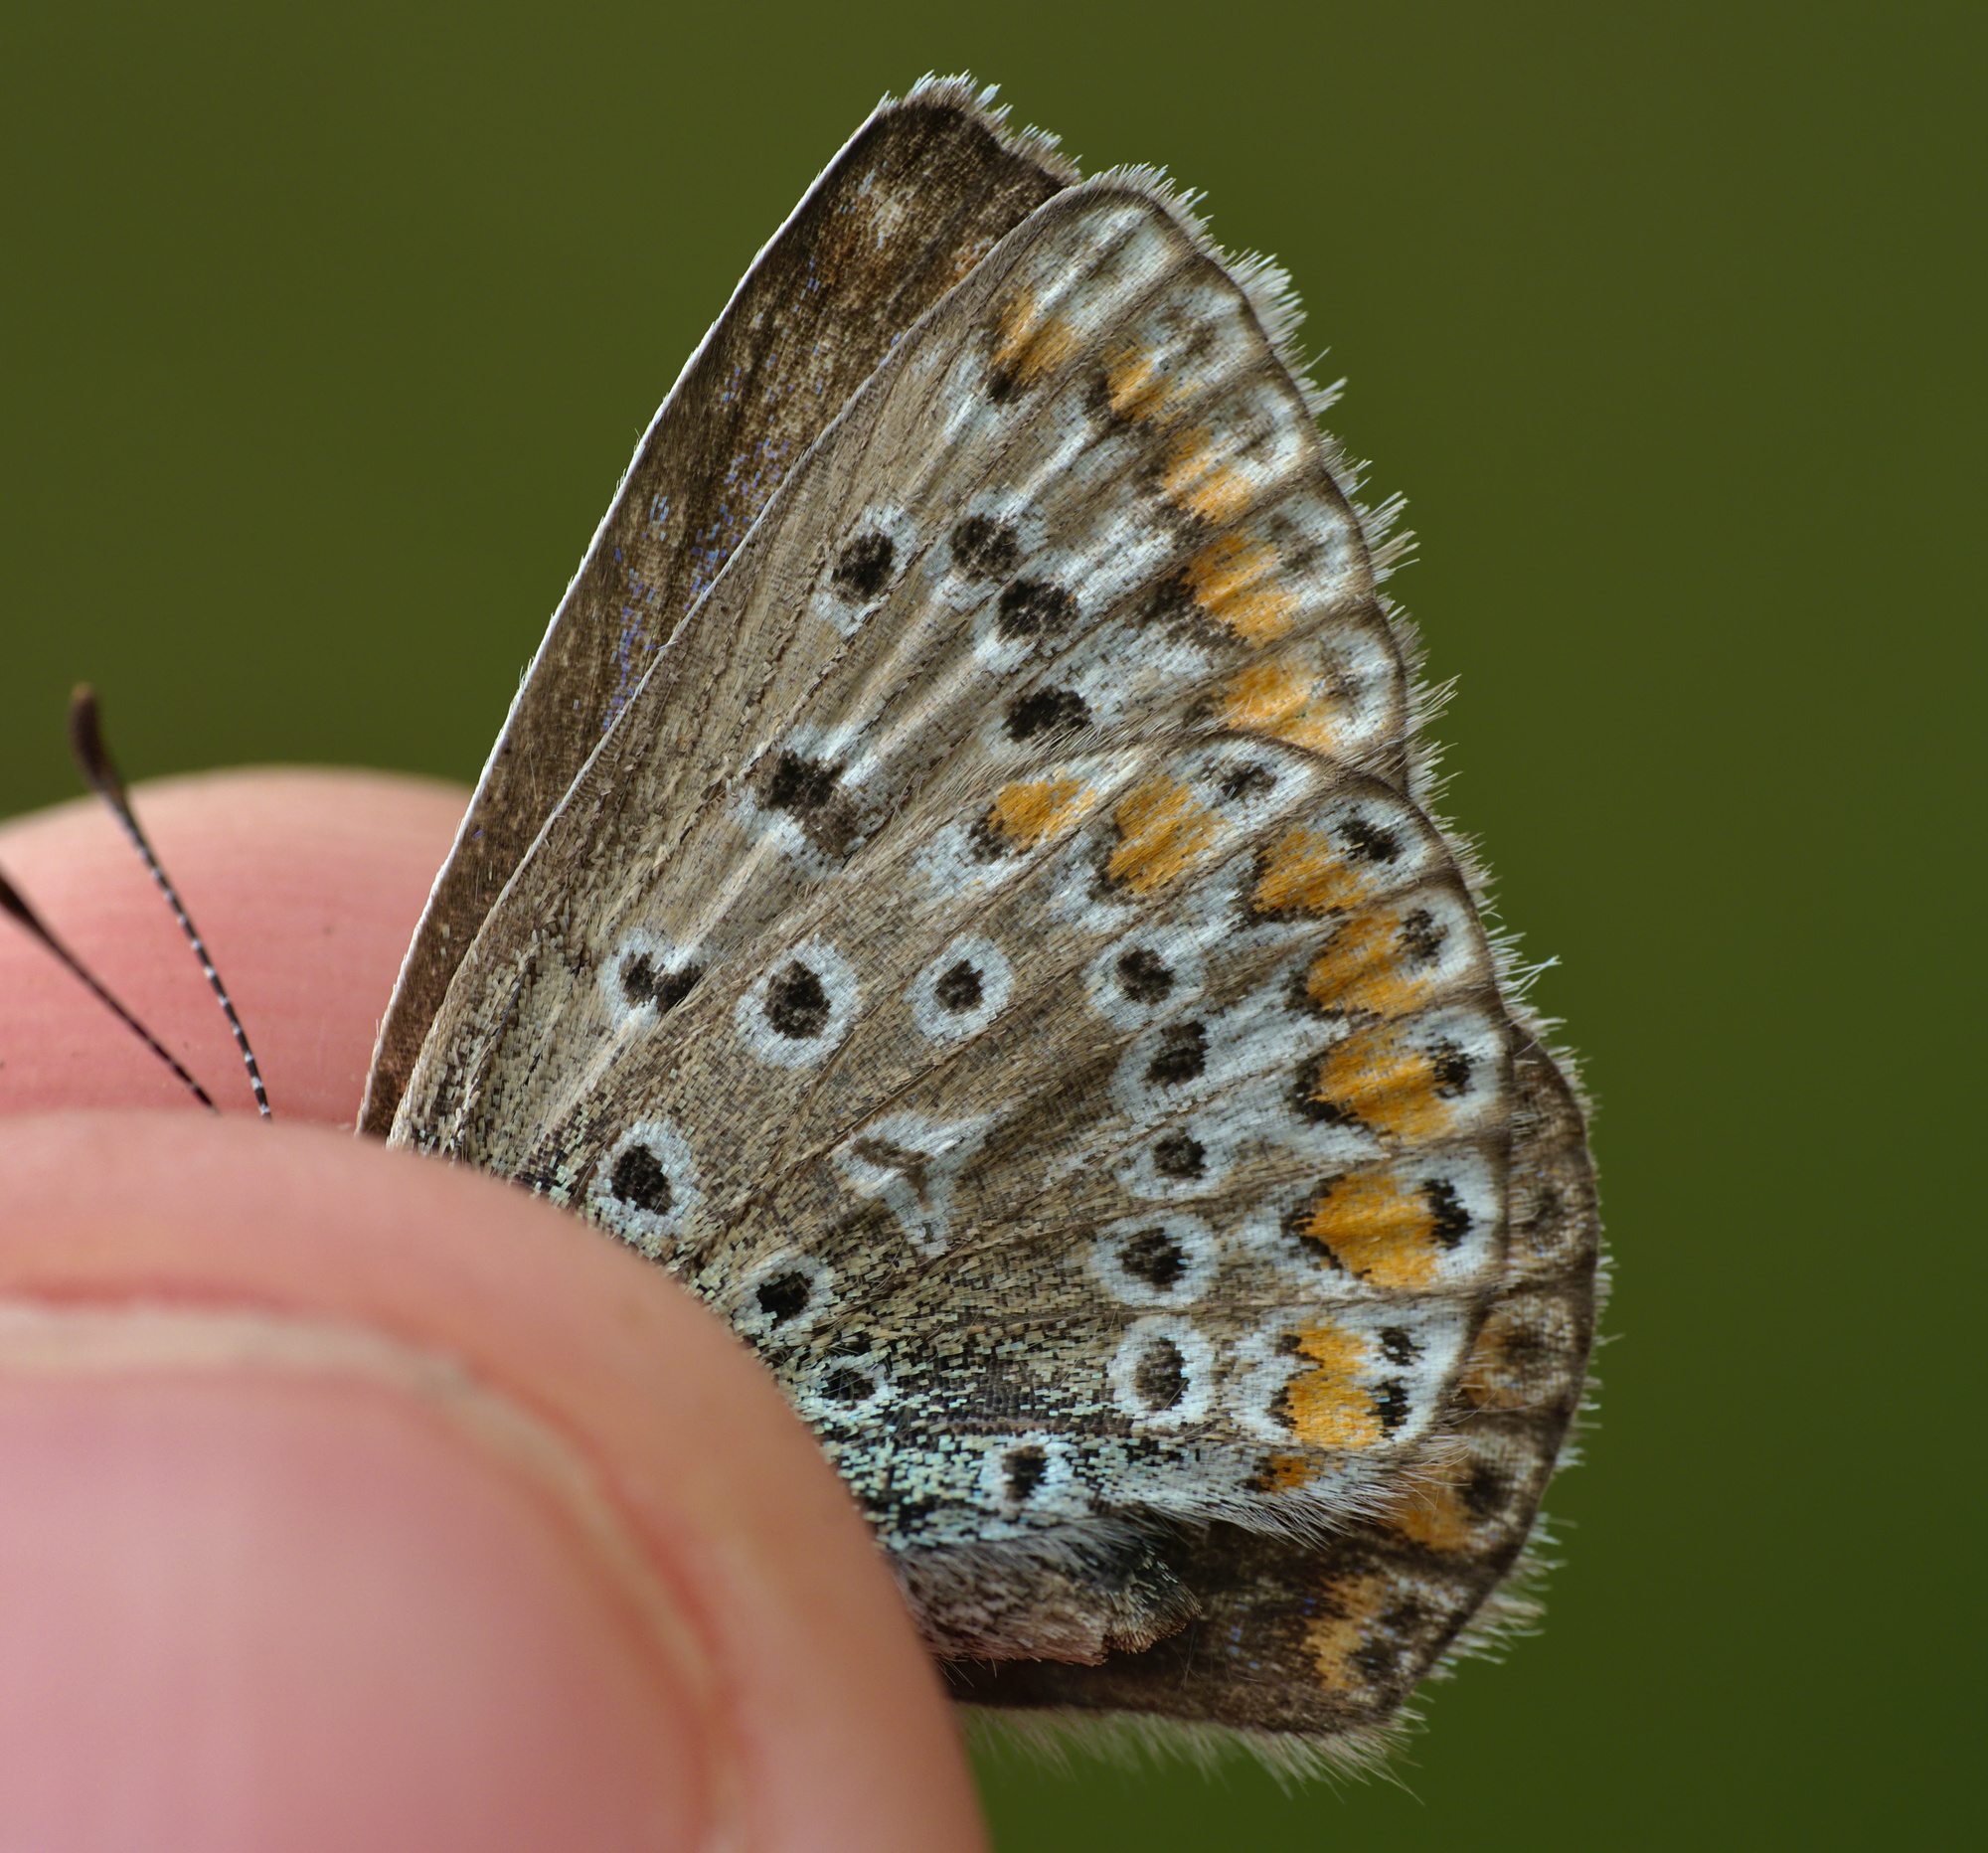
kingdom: Animalia
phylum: Arthropoda
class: Insecta
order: Lepidoptera
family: Lycaenidae
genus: Polyommatus
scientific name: Polyommatus icarus
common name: Common blue
